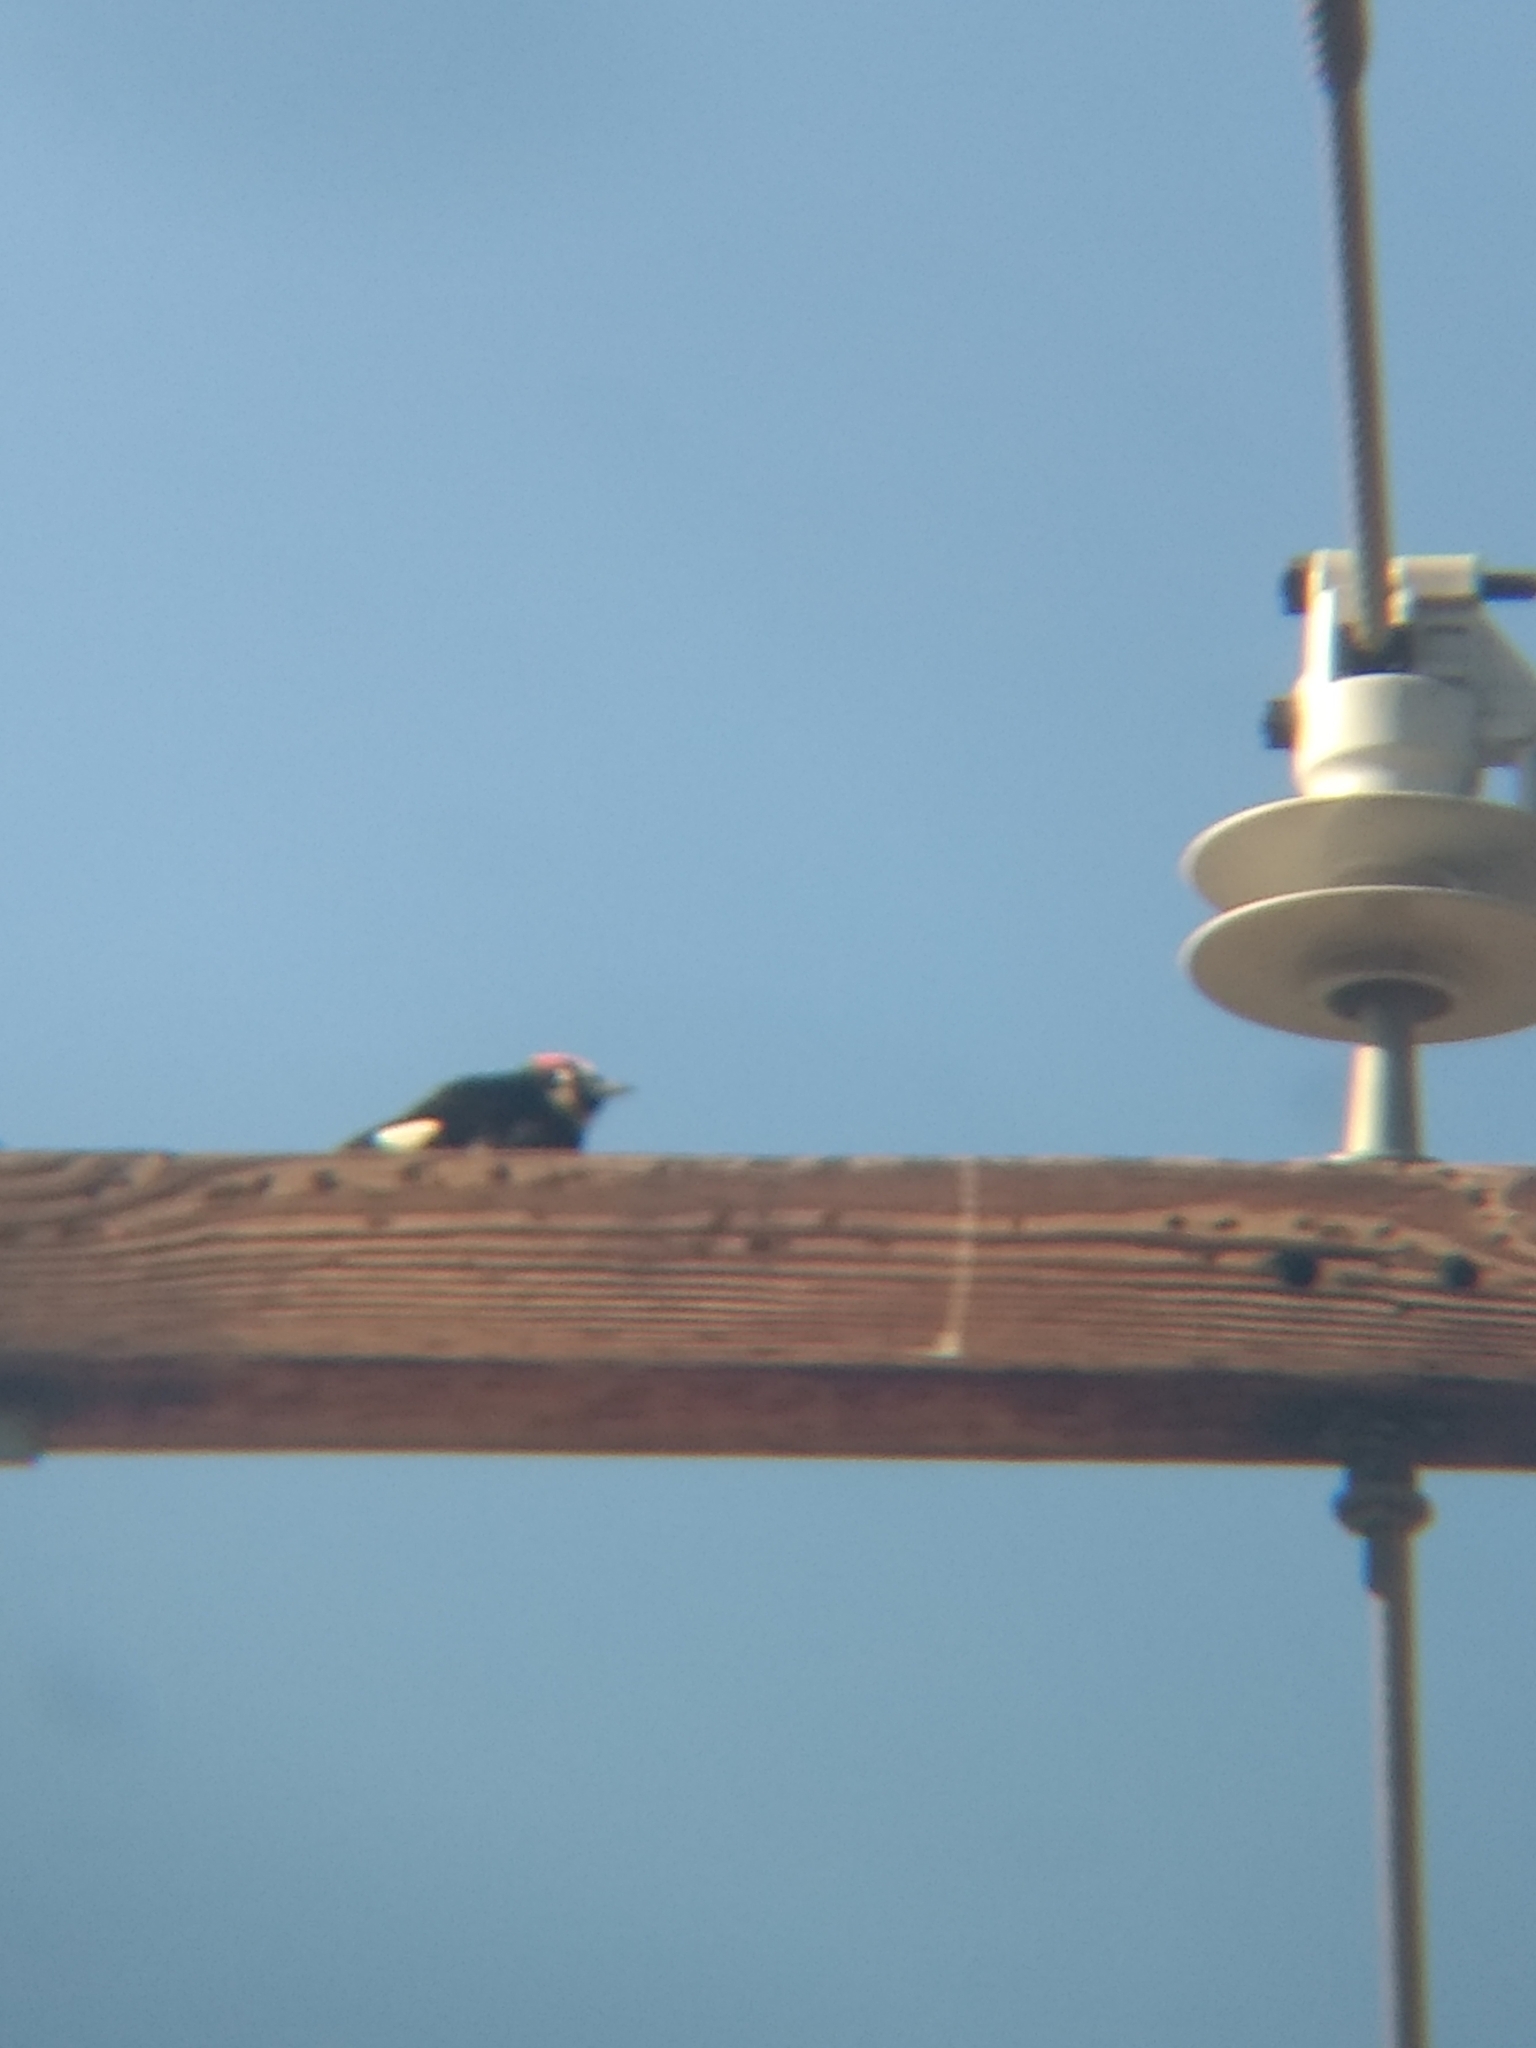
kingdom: Animalia
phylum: Chordata
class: Aves
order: Piciformes
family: Picidae
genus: Melanerpes
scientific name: Melanerpes formicivorus
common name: Acorn woodpecker
